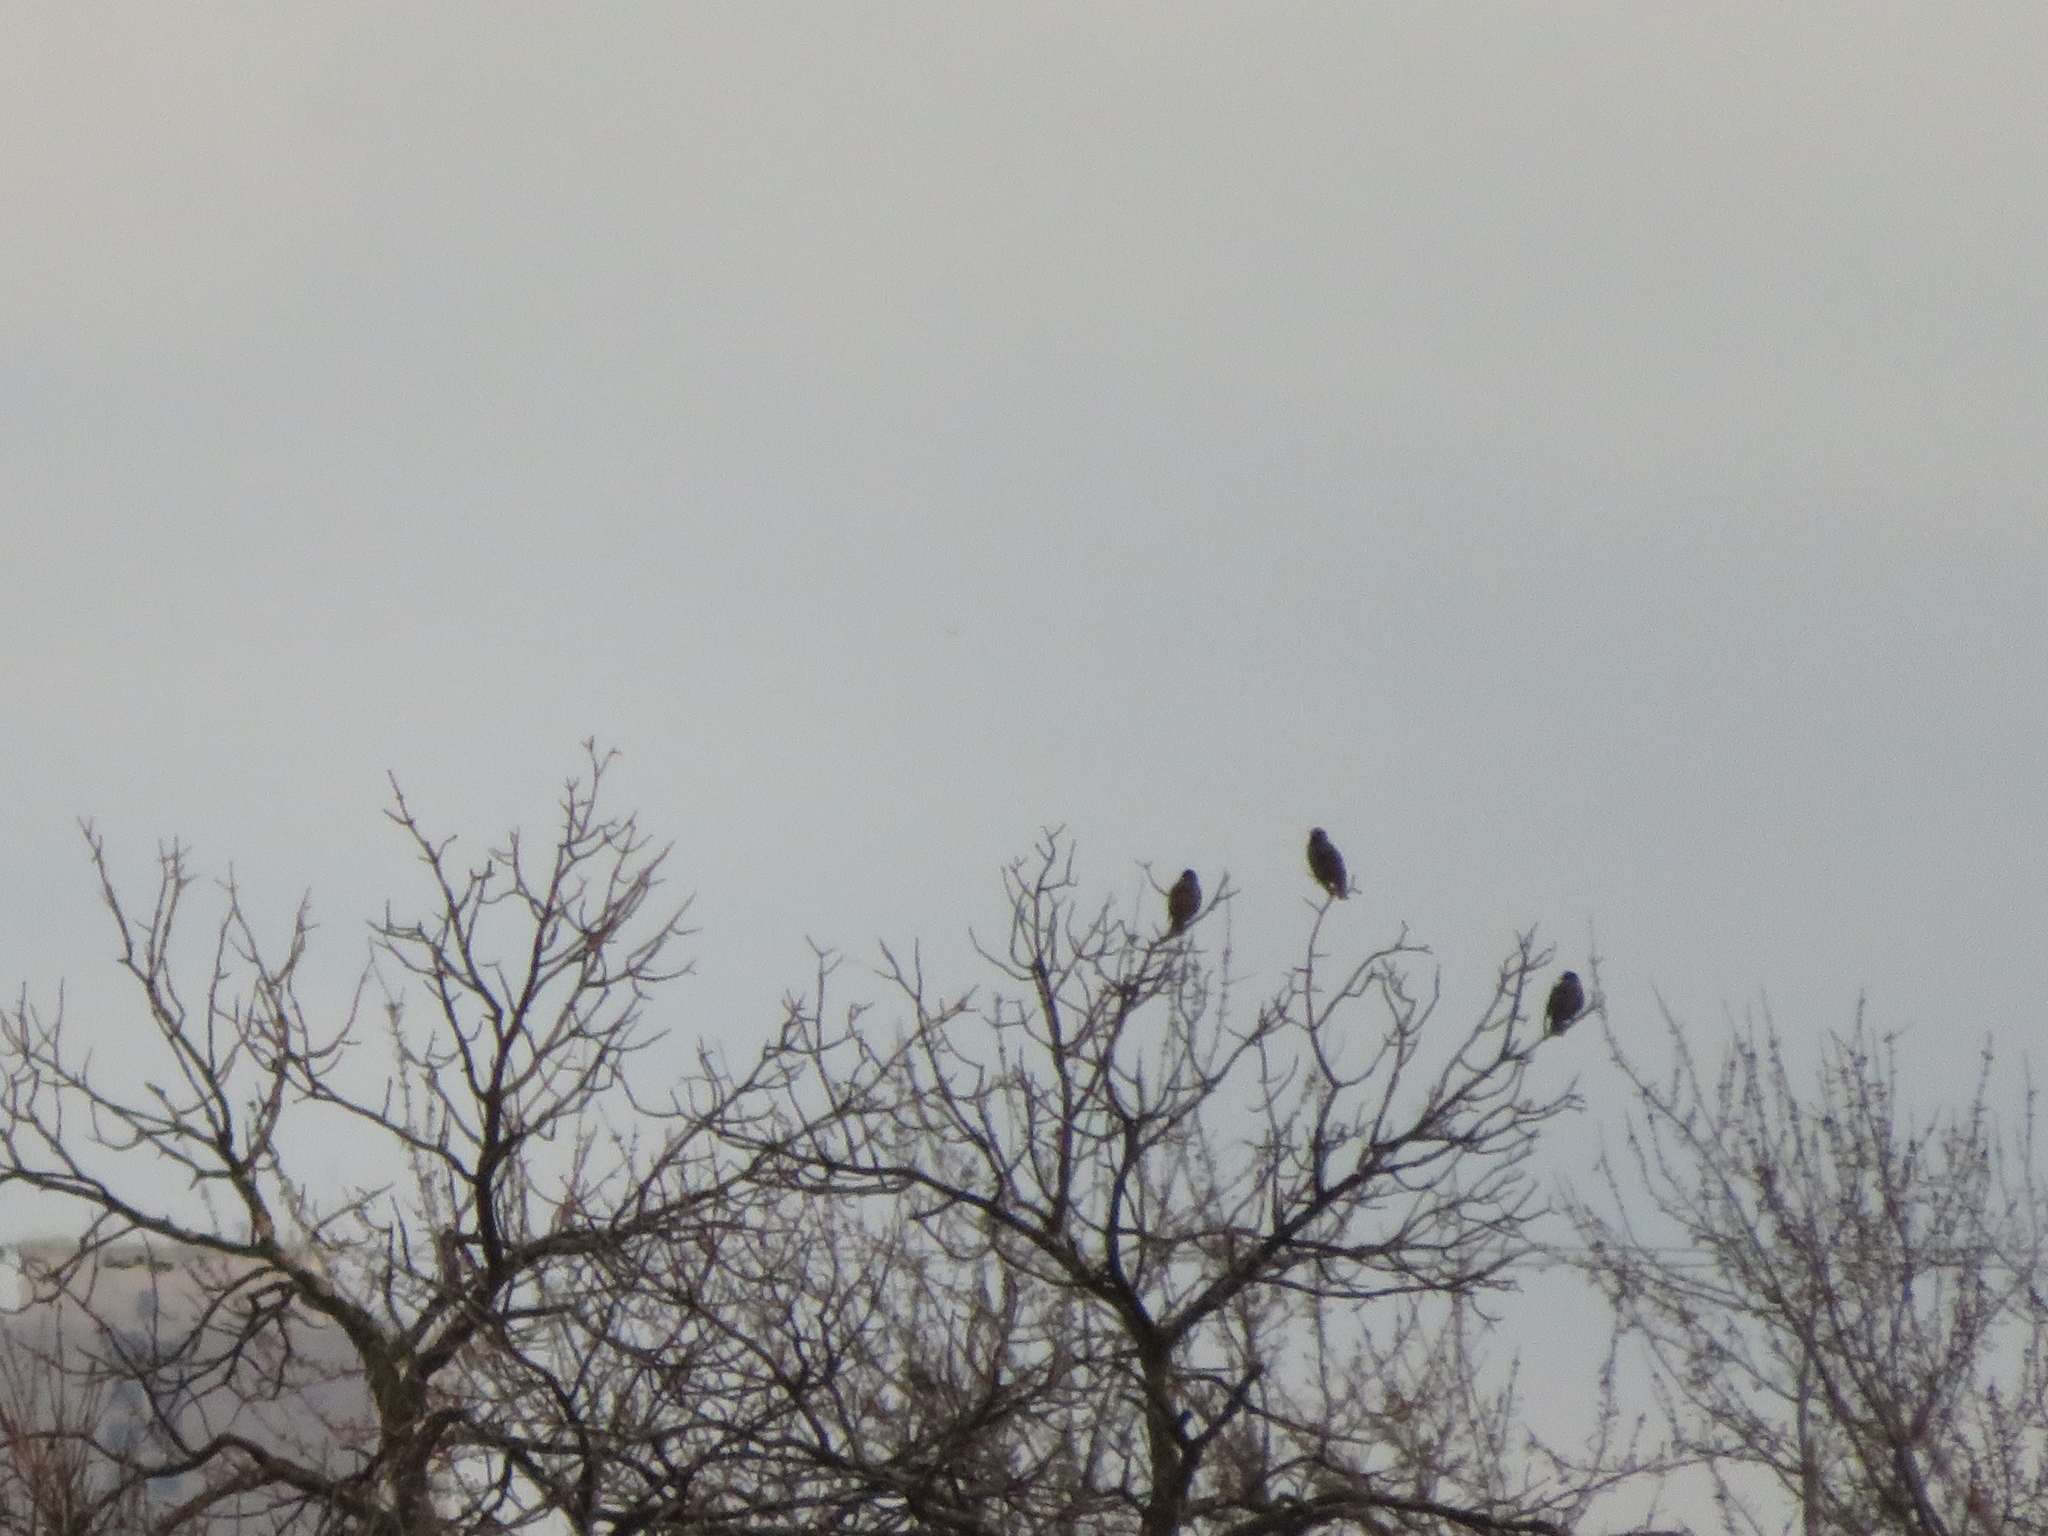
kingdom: Animalia
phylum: Chordata
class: Aves
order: Passeriformes
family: Sturnidae
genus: Sturnus
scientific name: Sturnus vulgaris
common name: Common starling
